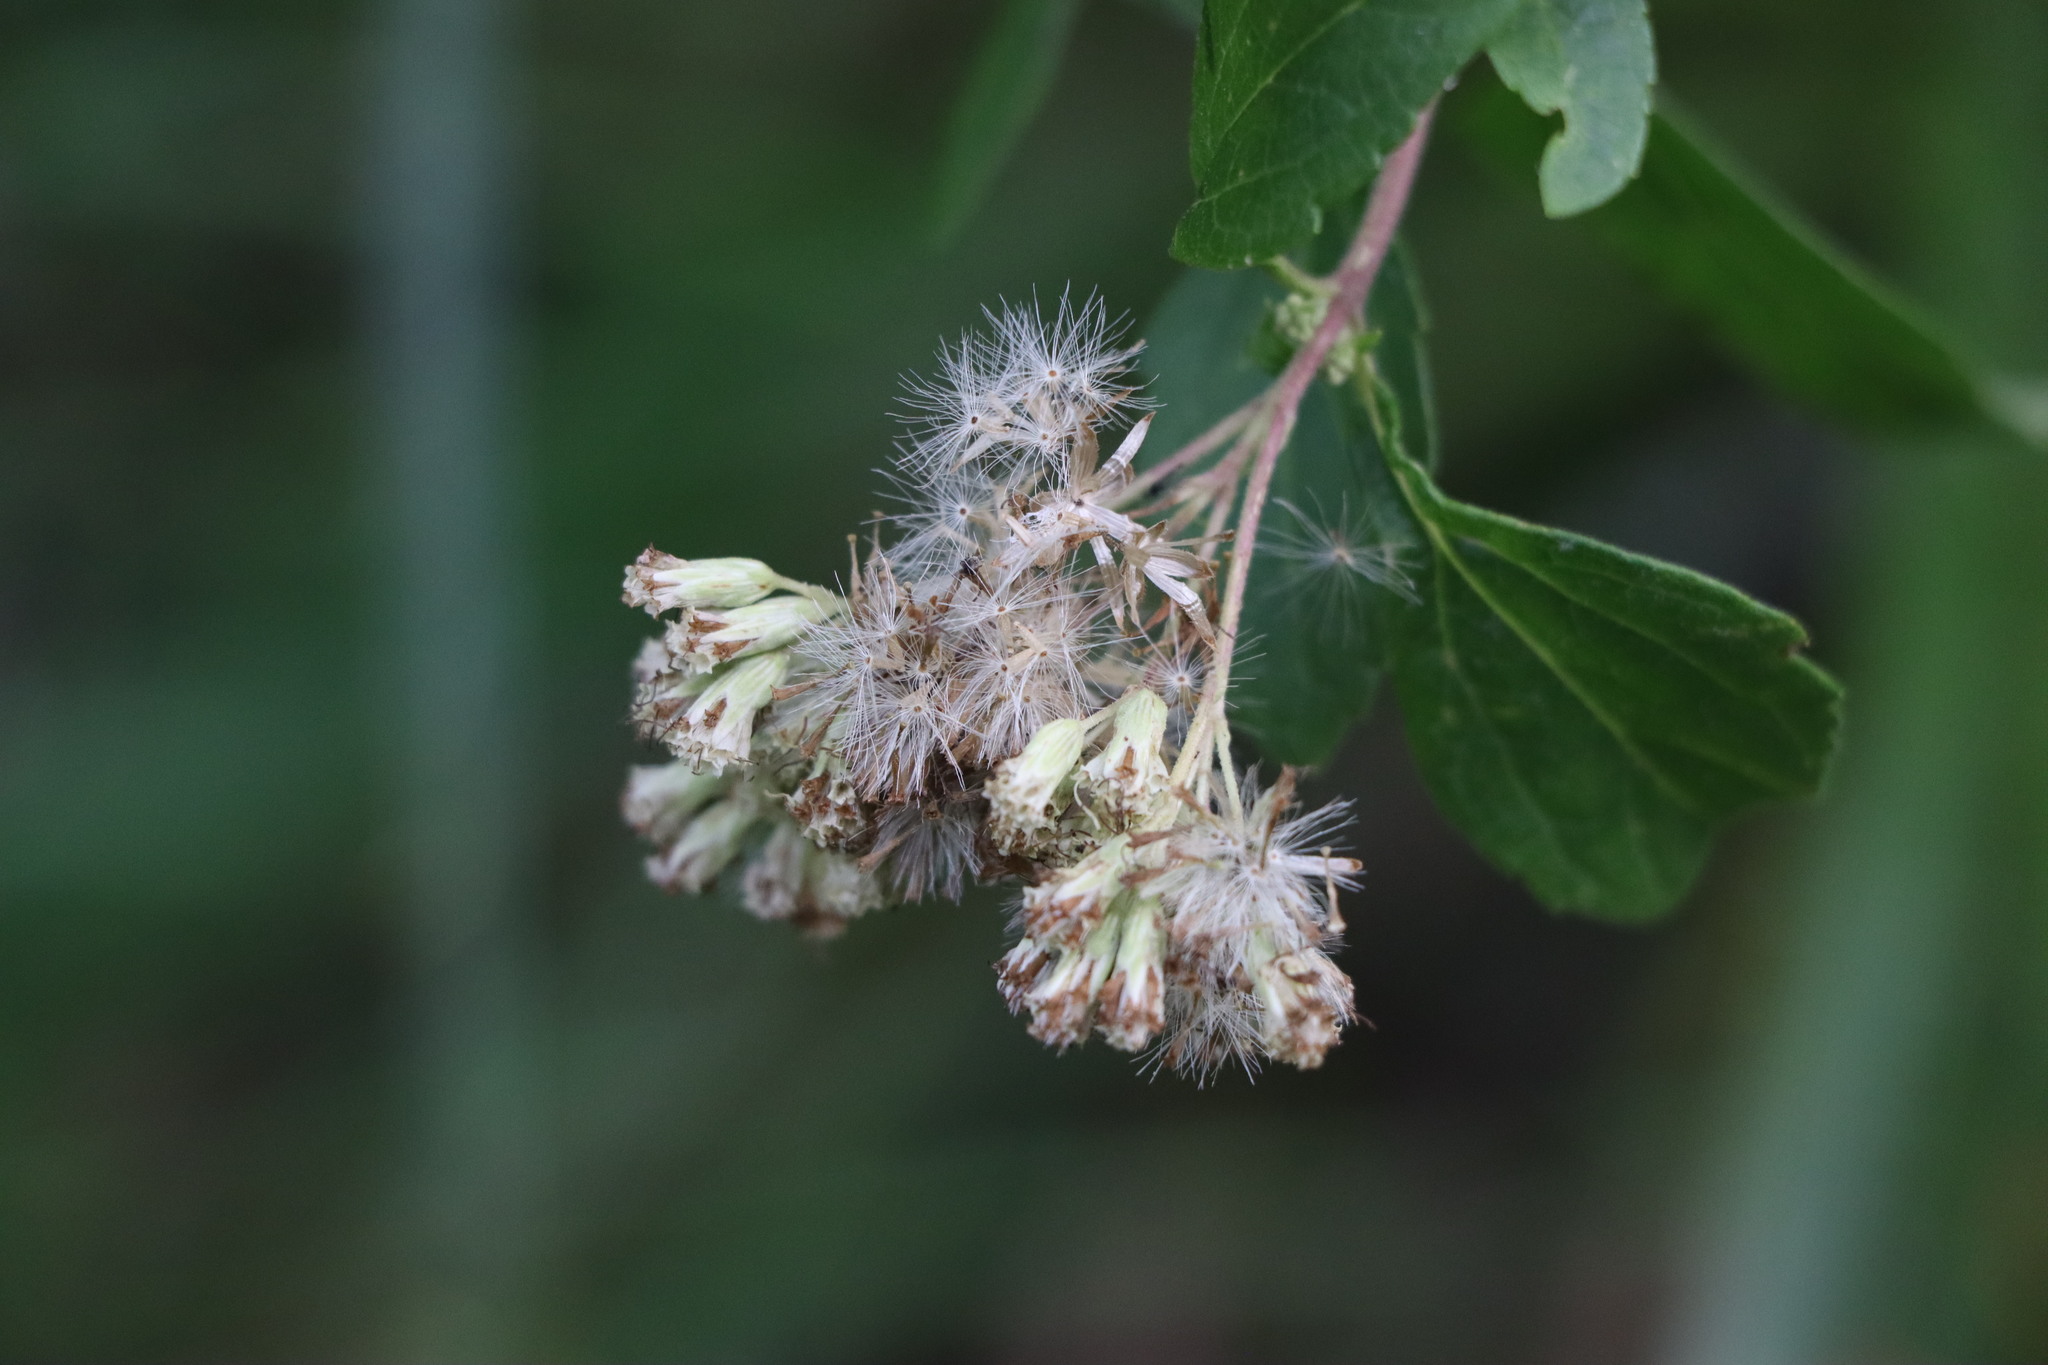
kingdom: Plantae
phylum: Tracheophyta
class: Magnoliopsida
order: Asterales
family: Asteraceae
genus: Austroeupatorium
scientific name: Austroeupatorium inulifolium
